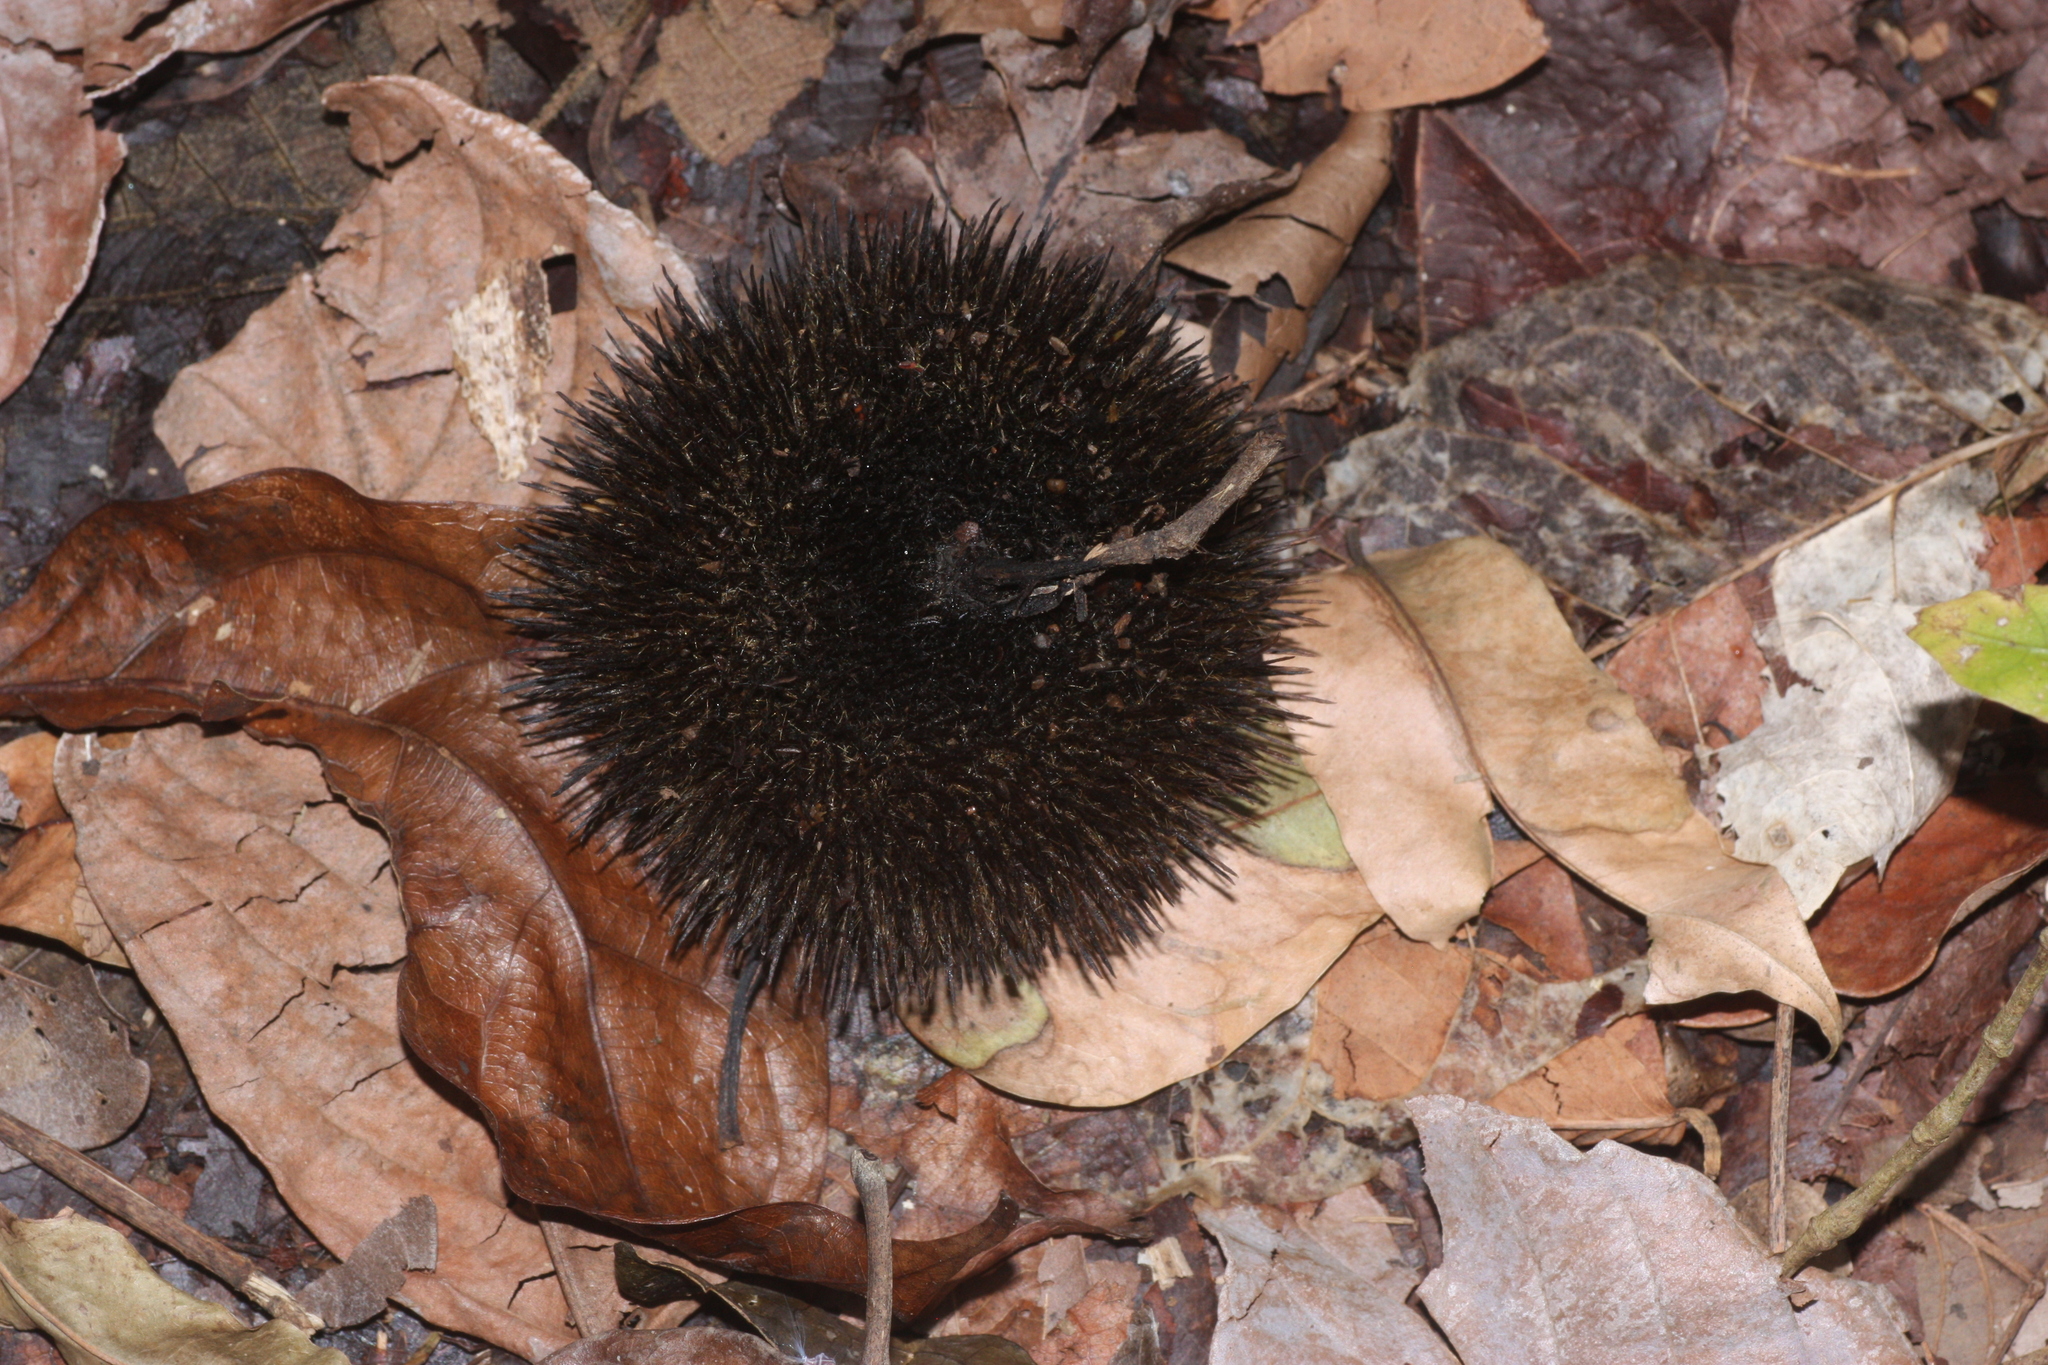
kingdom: Plantae
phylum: Tracheophyta
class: Magnoliopsida
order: Malvales
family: Malvaceae
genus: Apeiba
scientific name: Apeiba tibourbou
